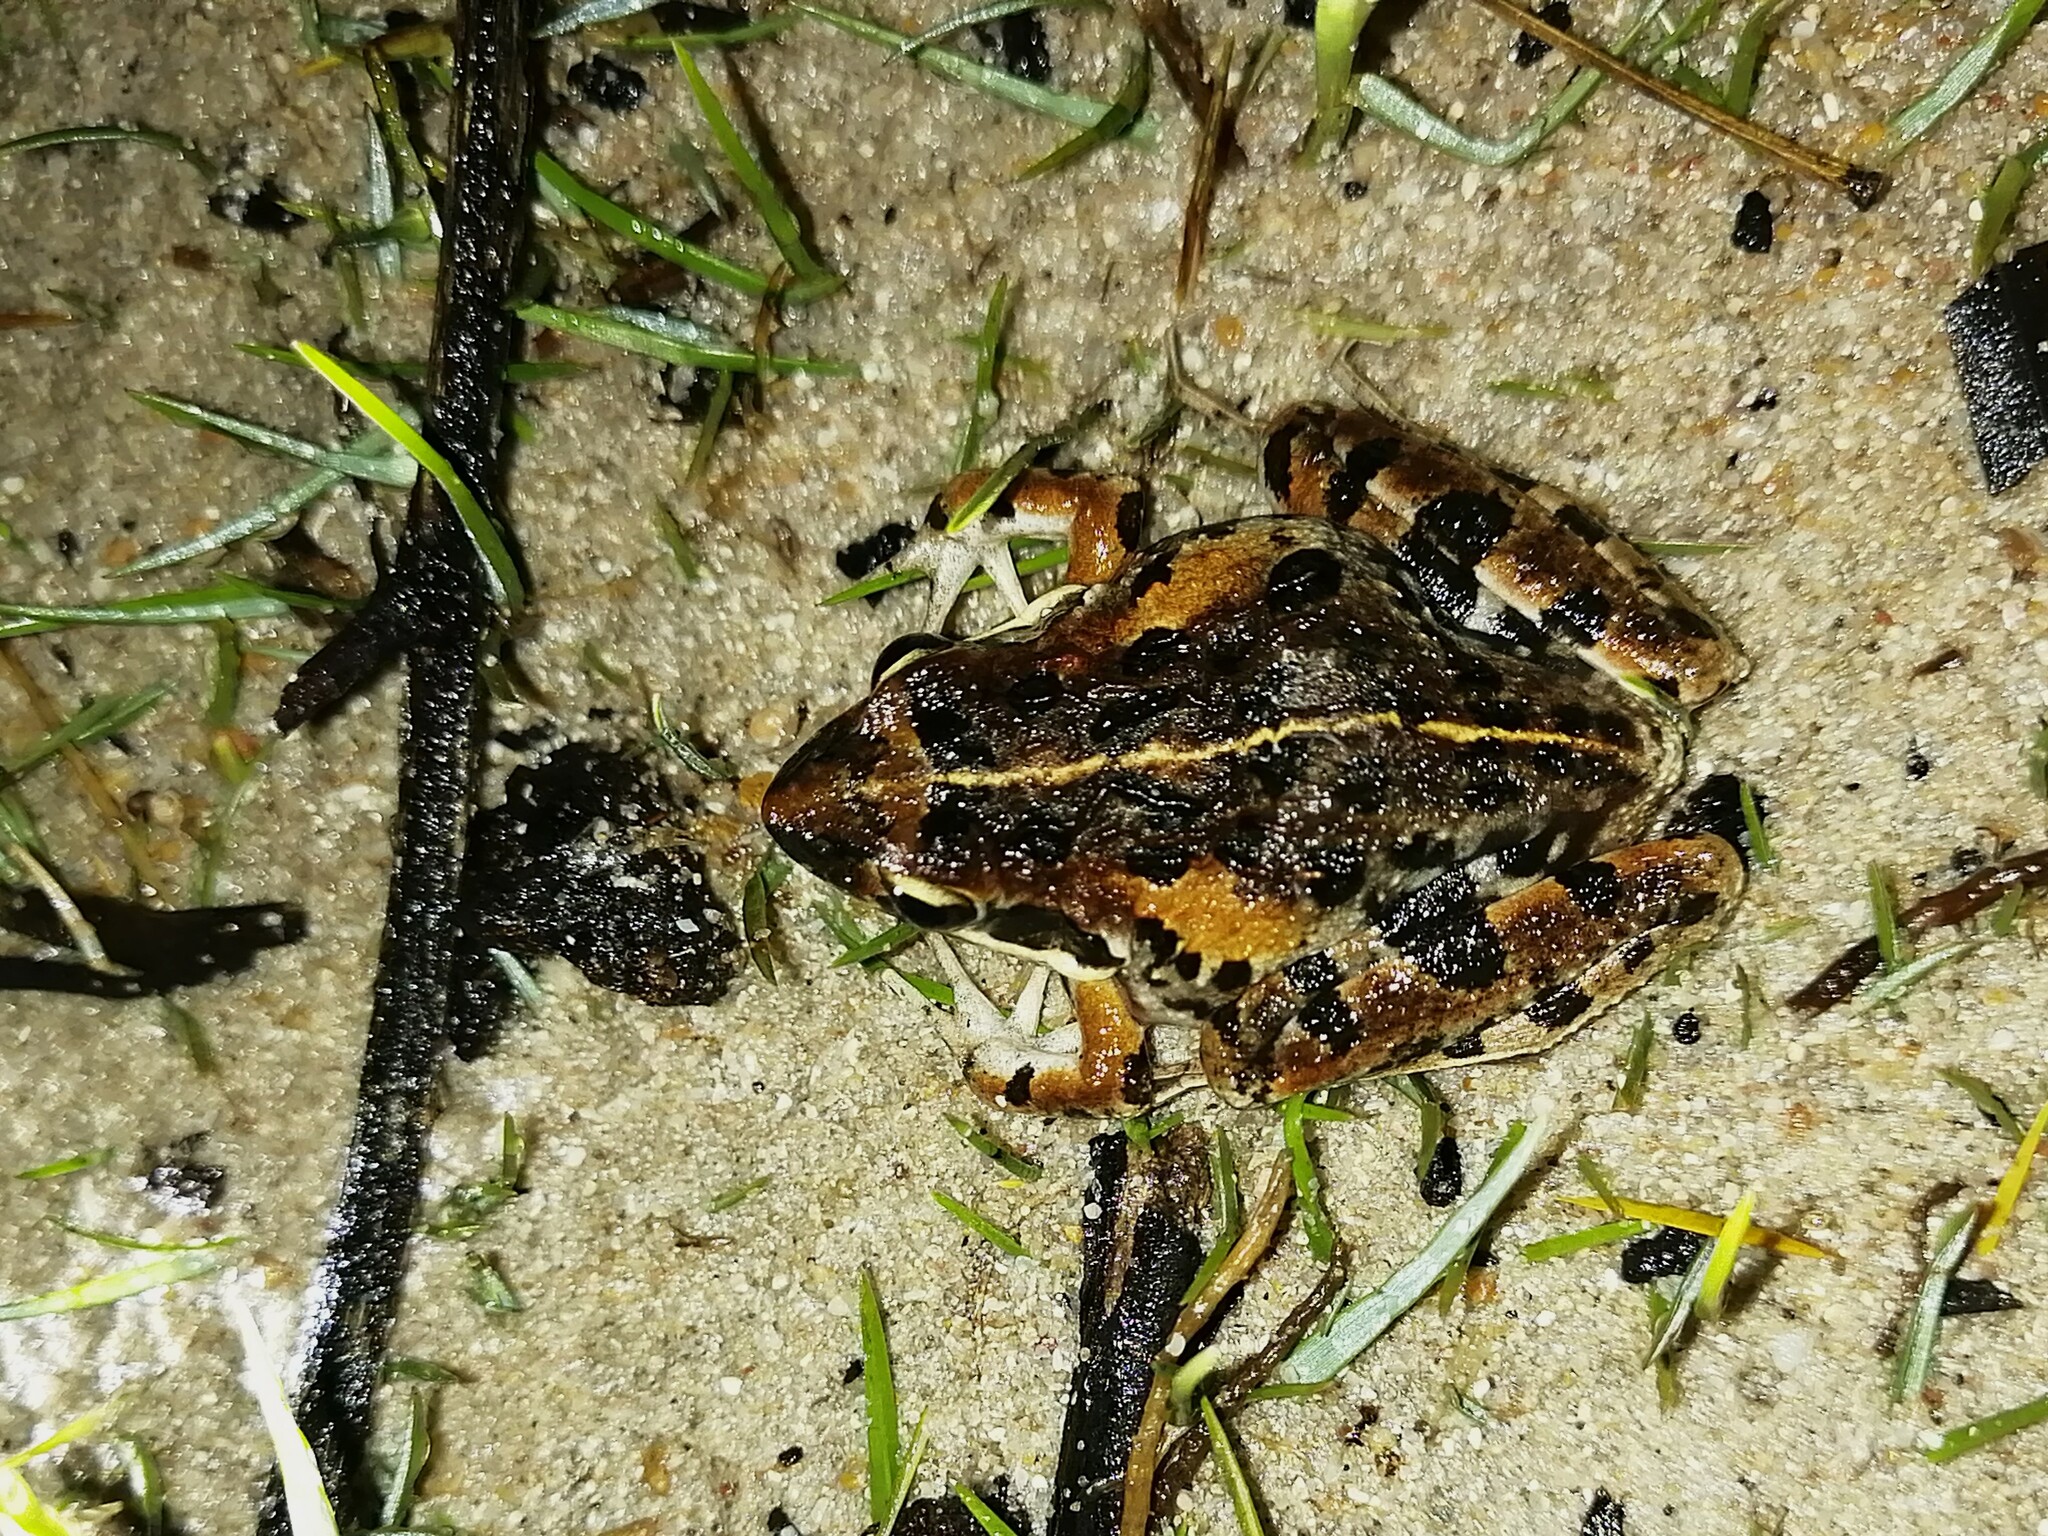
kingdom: Animalia
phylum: Chordata
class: Amphibia
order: Anura
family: Pyxicephalidae
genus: Strongylopus
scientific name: Strongylopus grayii
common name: Gray's stream frog
